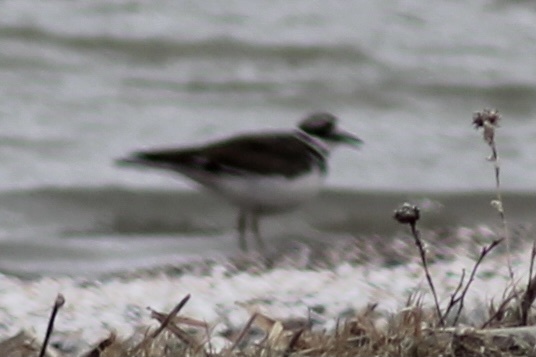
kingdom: Animalia
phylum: Chordata
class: Aves
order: Charadriiformes
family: Charadriidae
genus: Charadrius
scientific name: Charadrius vociferus
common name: Killdeer
